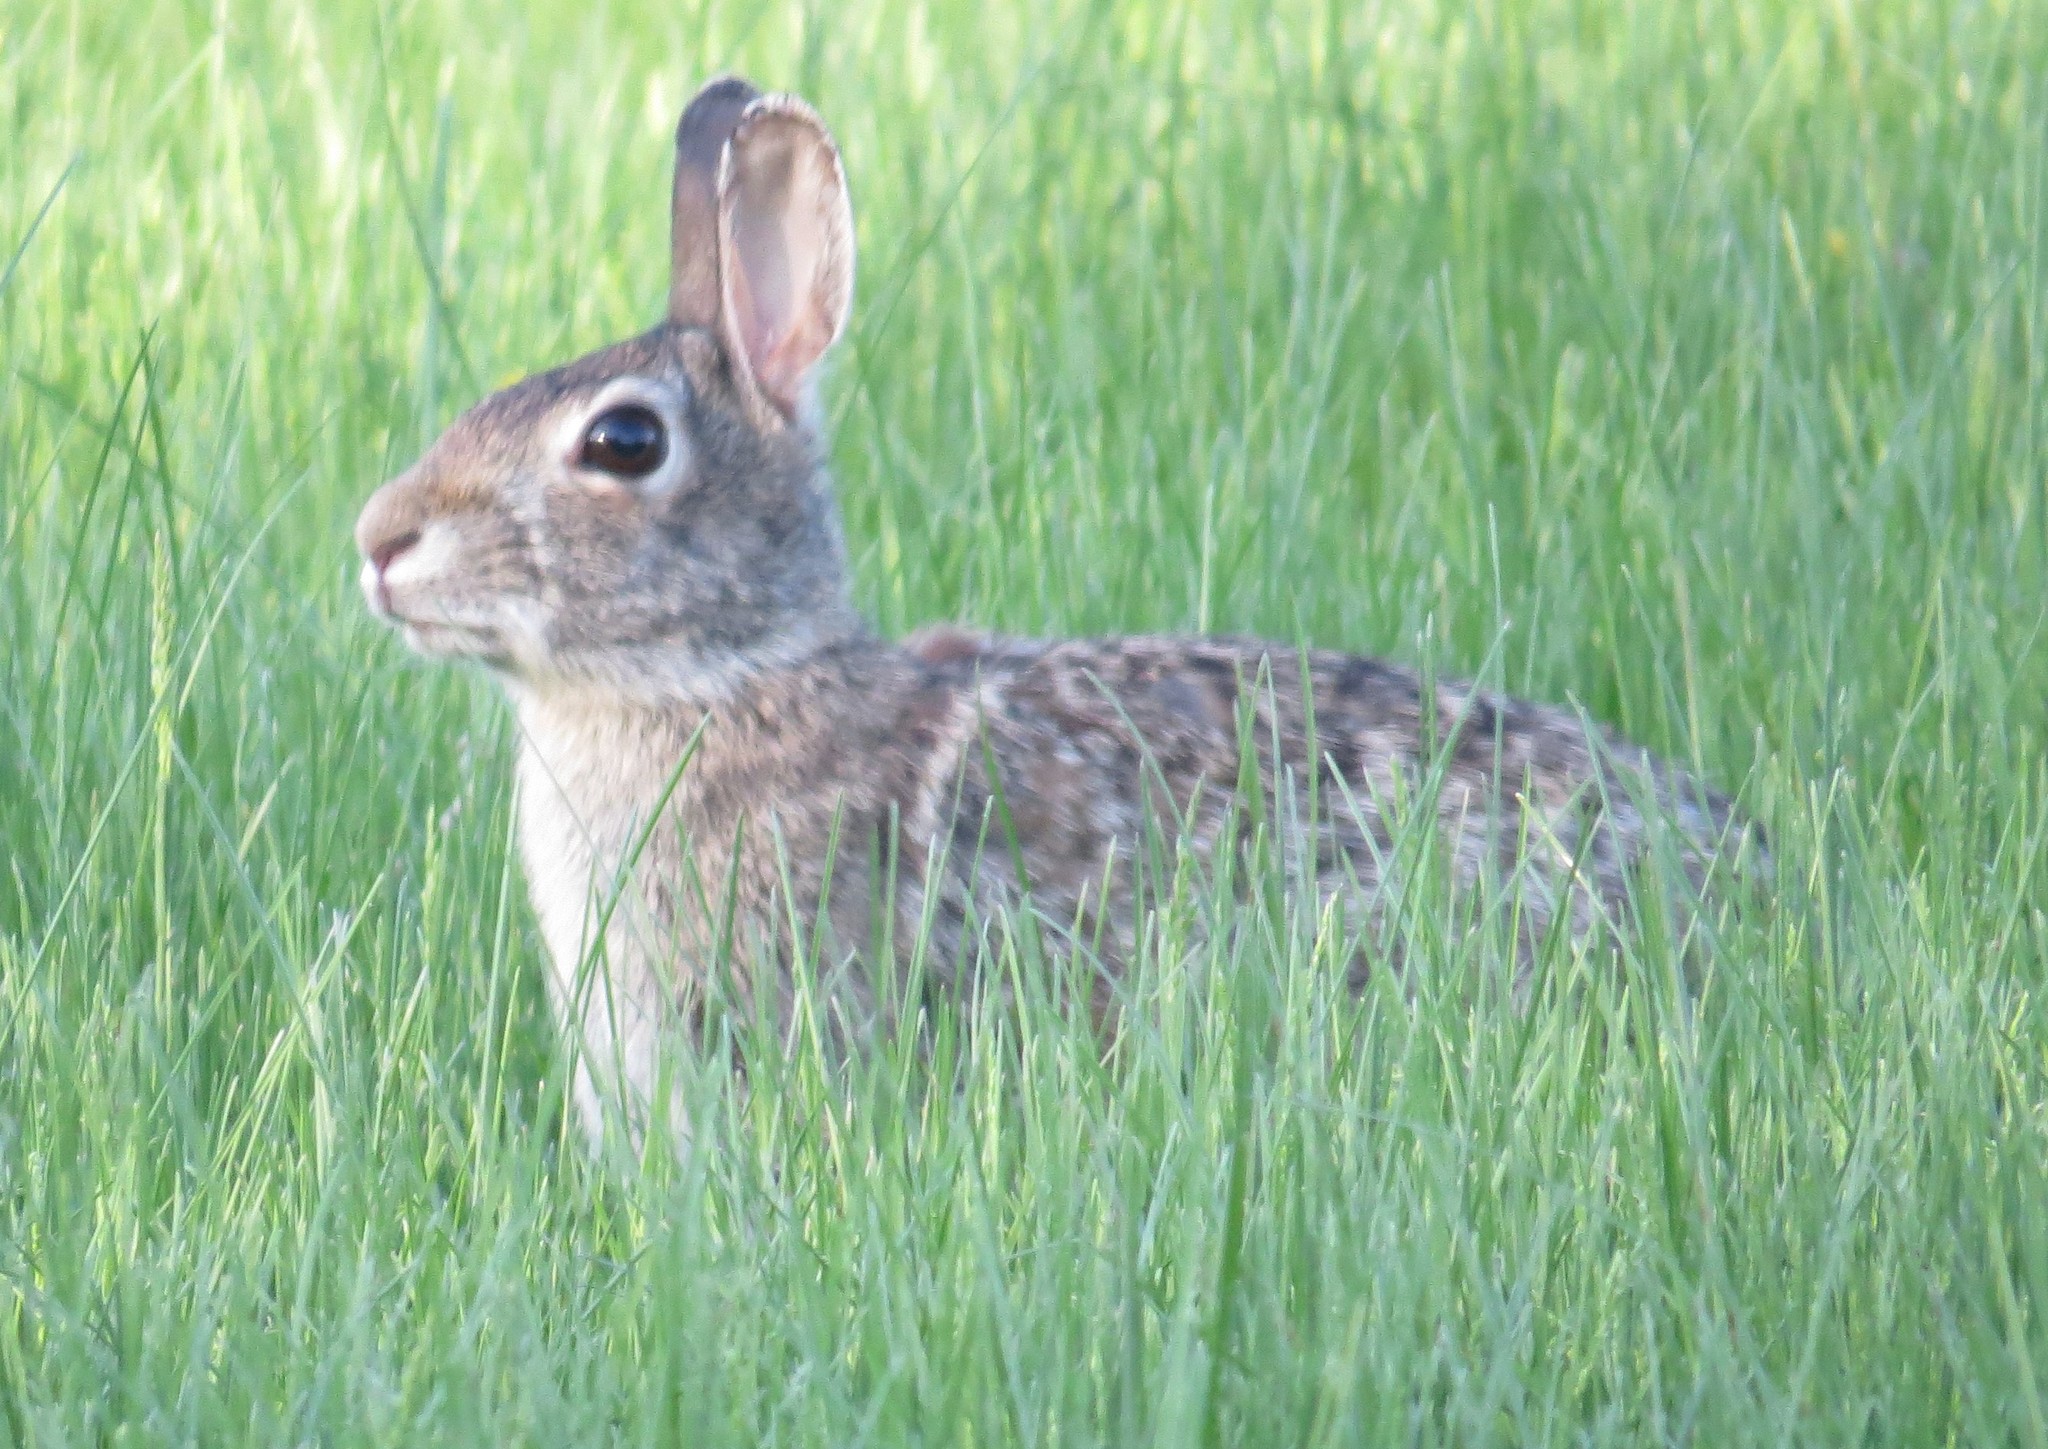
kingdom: Animalia
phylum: Chordata
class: Mammalia
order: Lagomorpha
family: Leporidae
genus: Sylvilagus
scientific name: Sylvilagus floridanus
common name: Eastern cottontail
